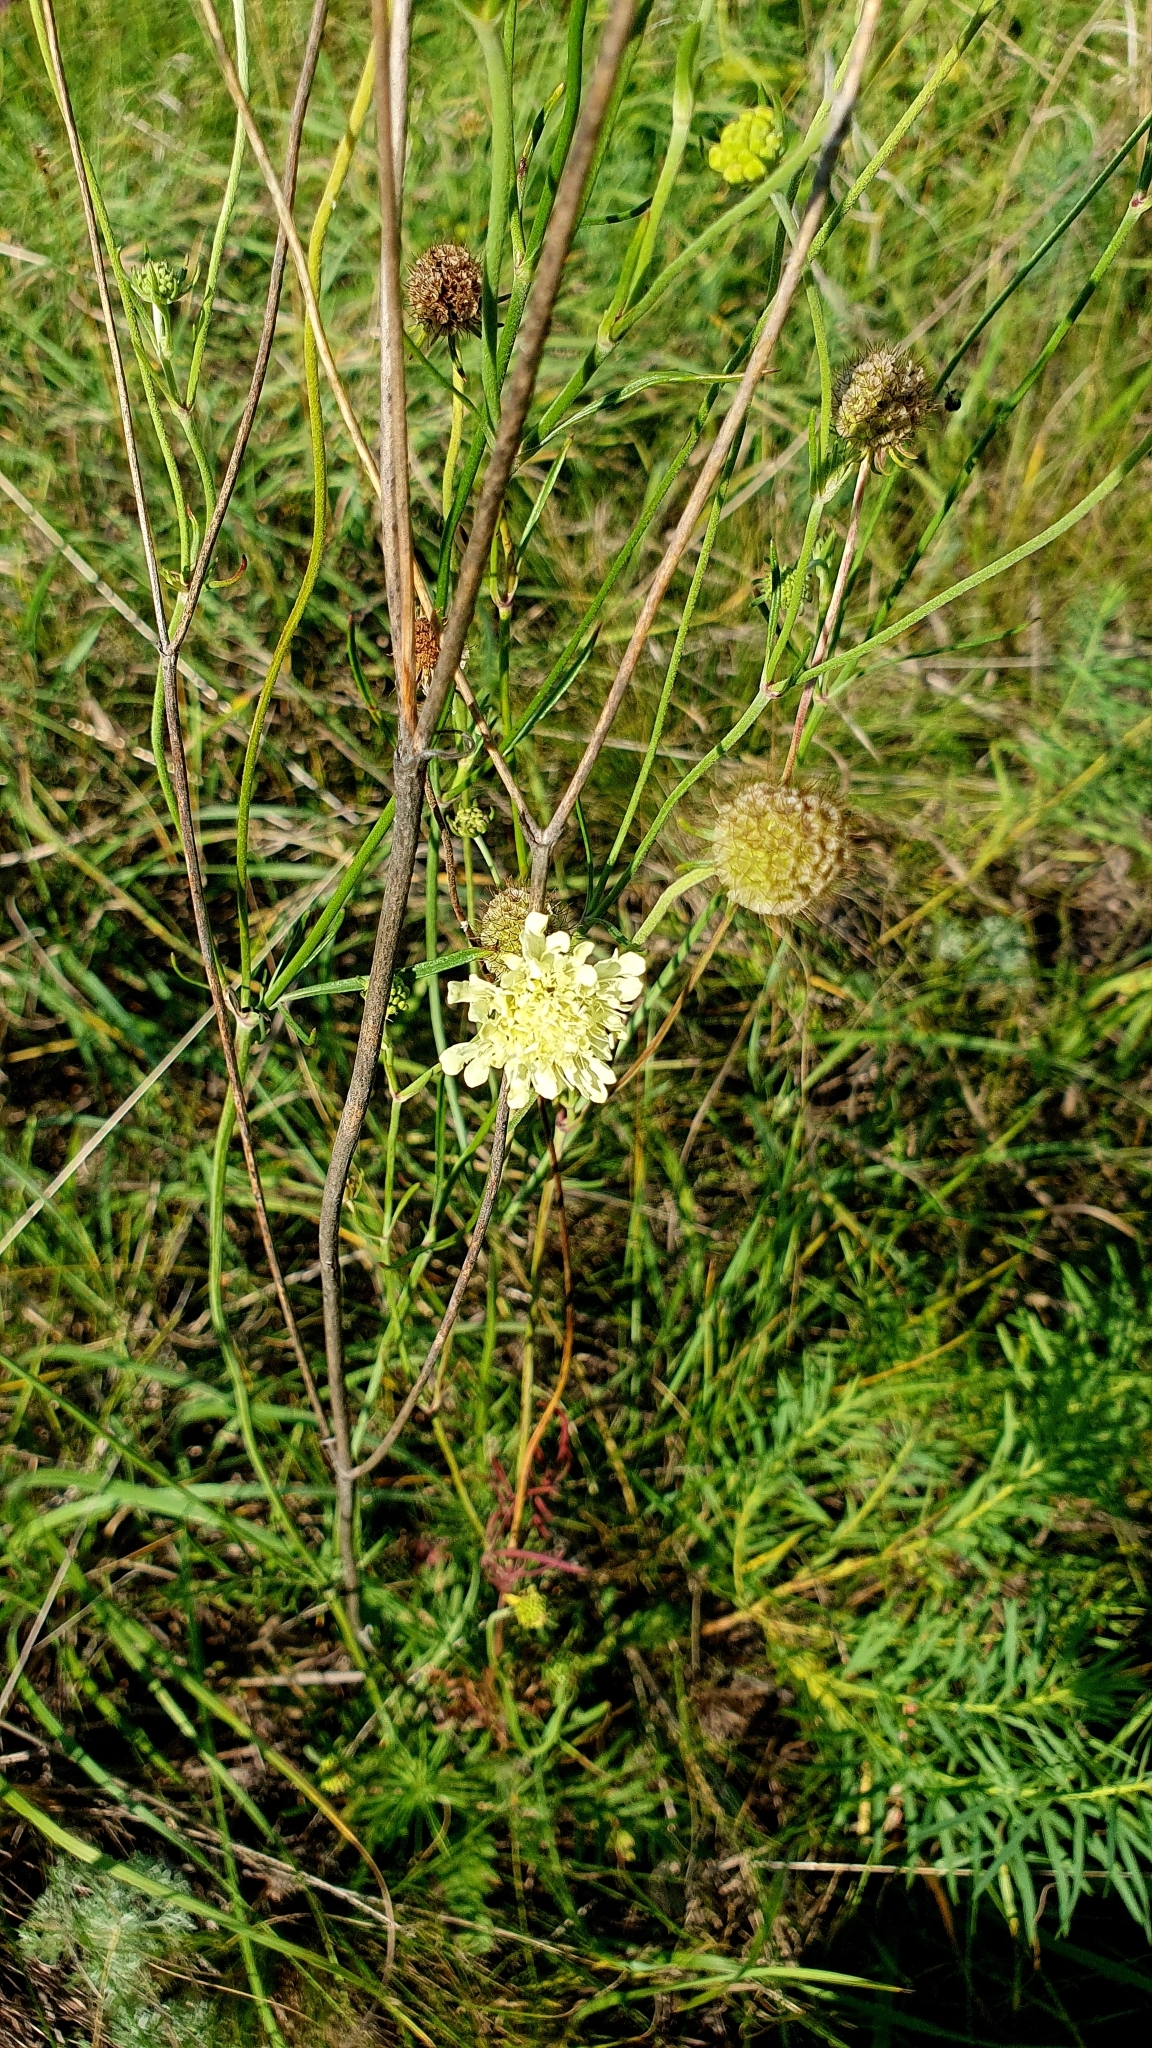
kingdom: Plantae
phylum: Tracheophyta
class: Magnoliopsida
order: Dipsacales
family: Caprifoliaceae
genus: Scabiosa
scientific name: Scabiosa ochroleuca
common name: Cream pincushions
